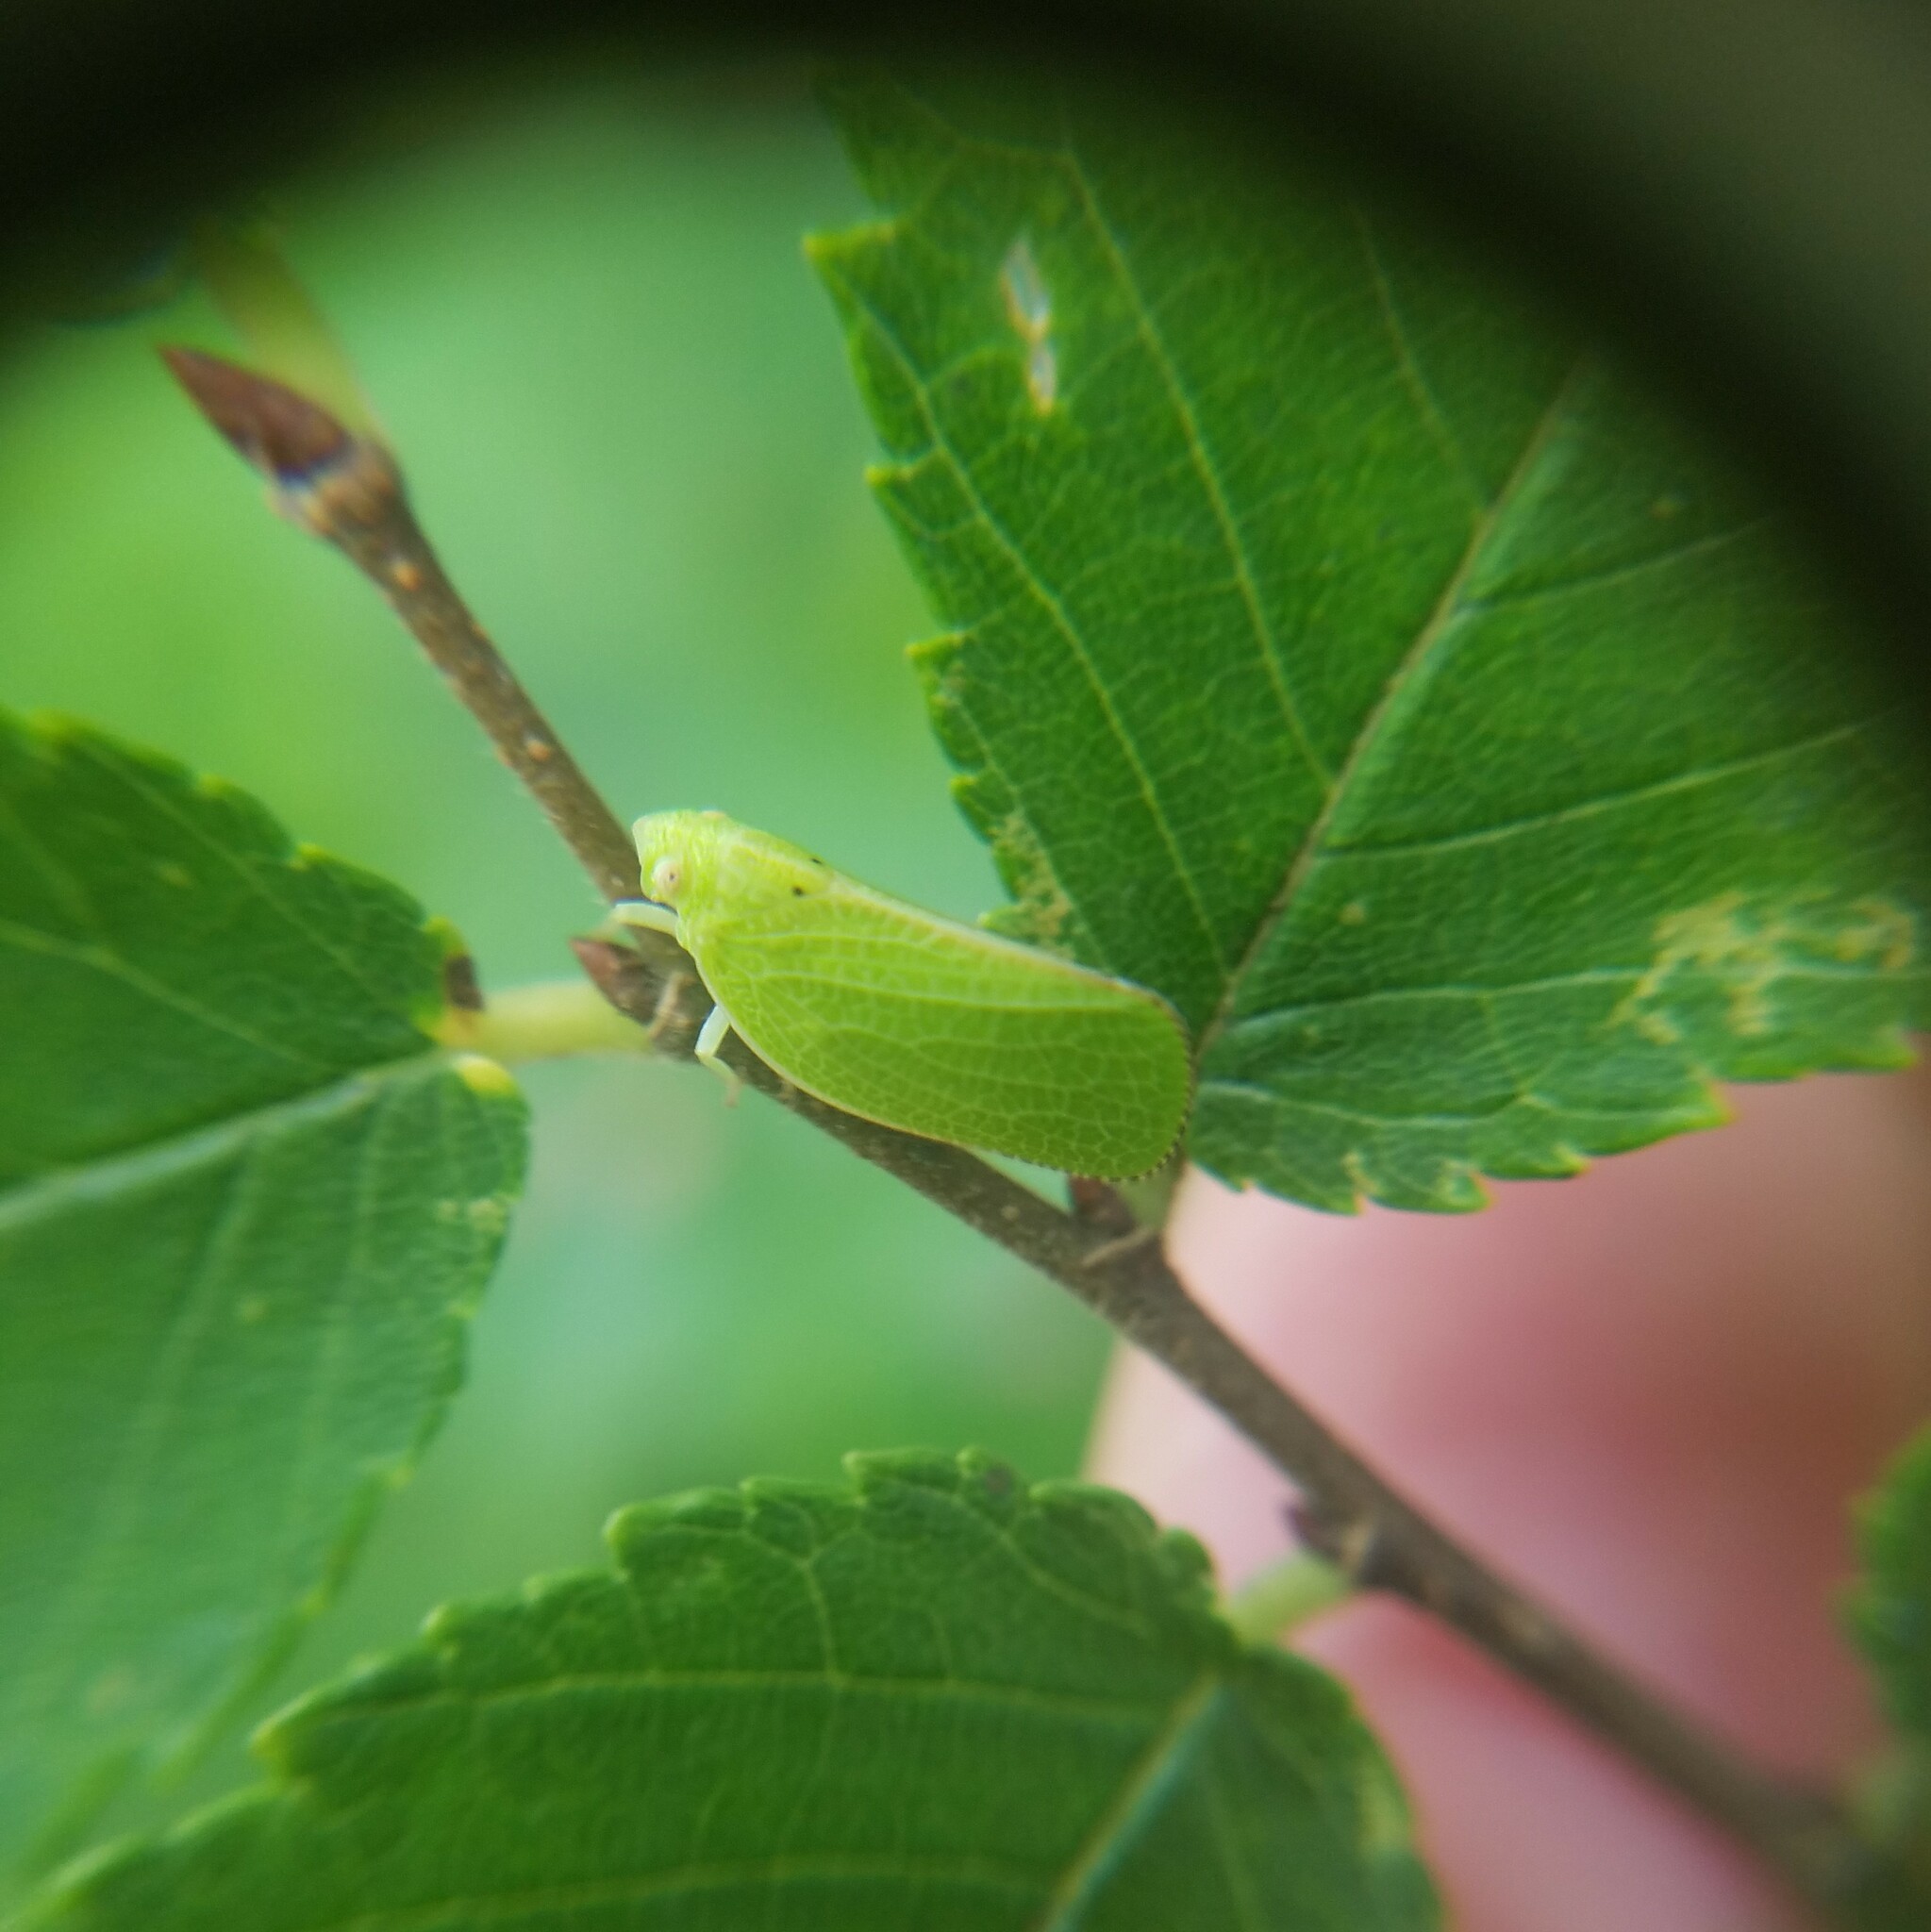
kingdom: Animalia
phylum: Arthropoda
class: Insecta
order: Hemiptera
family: Acanaloniidae
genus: Acanalonia
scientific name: Acanalonia conica
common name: Green cone-headed planthopper
